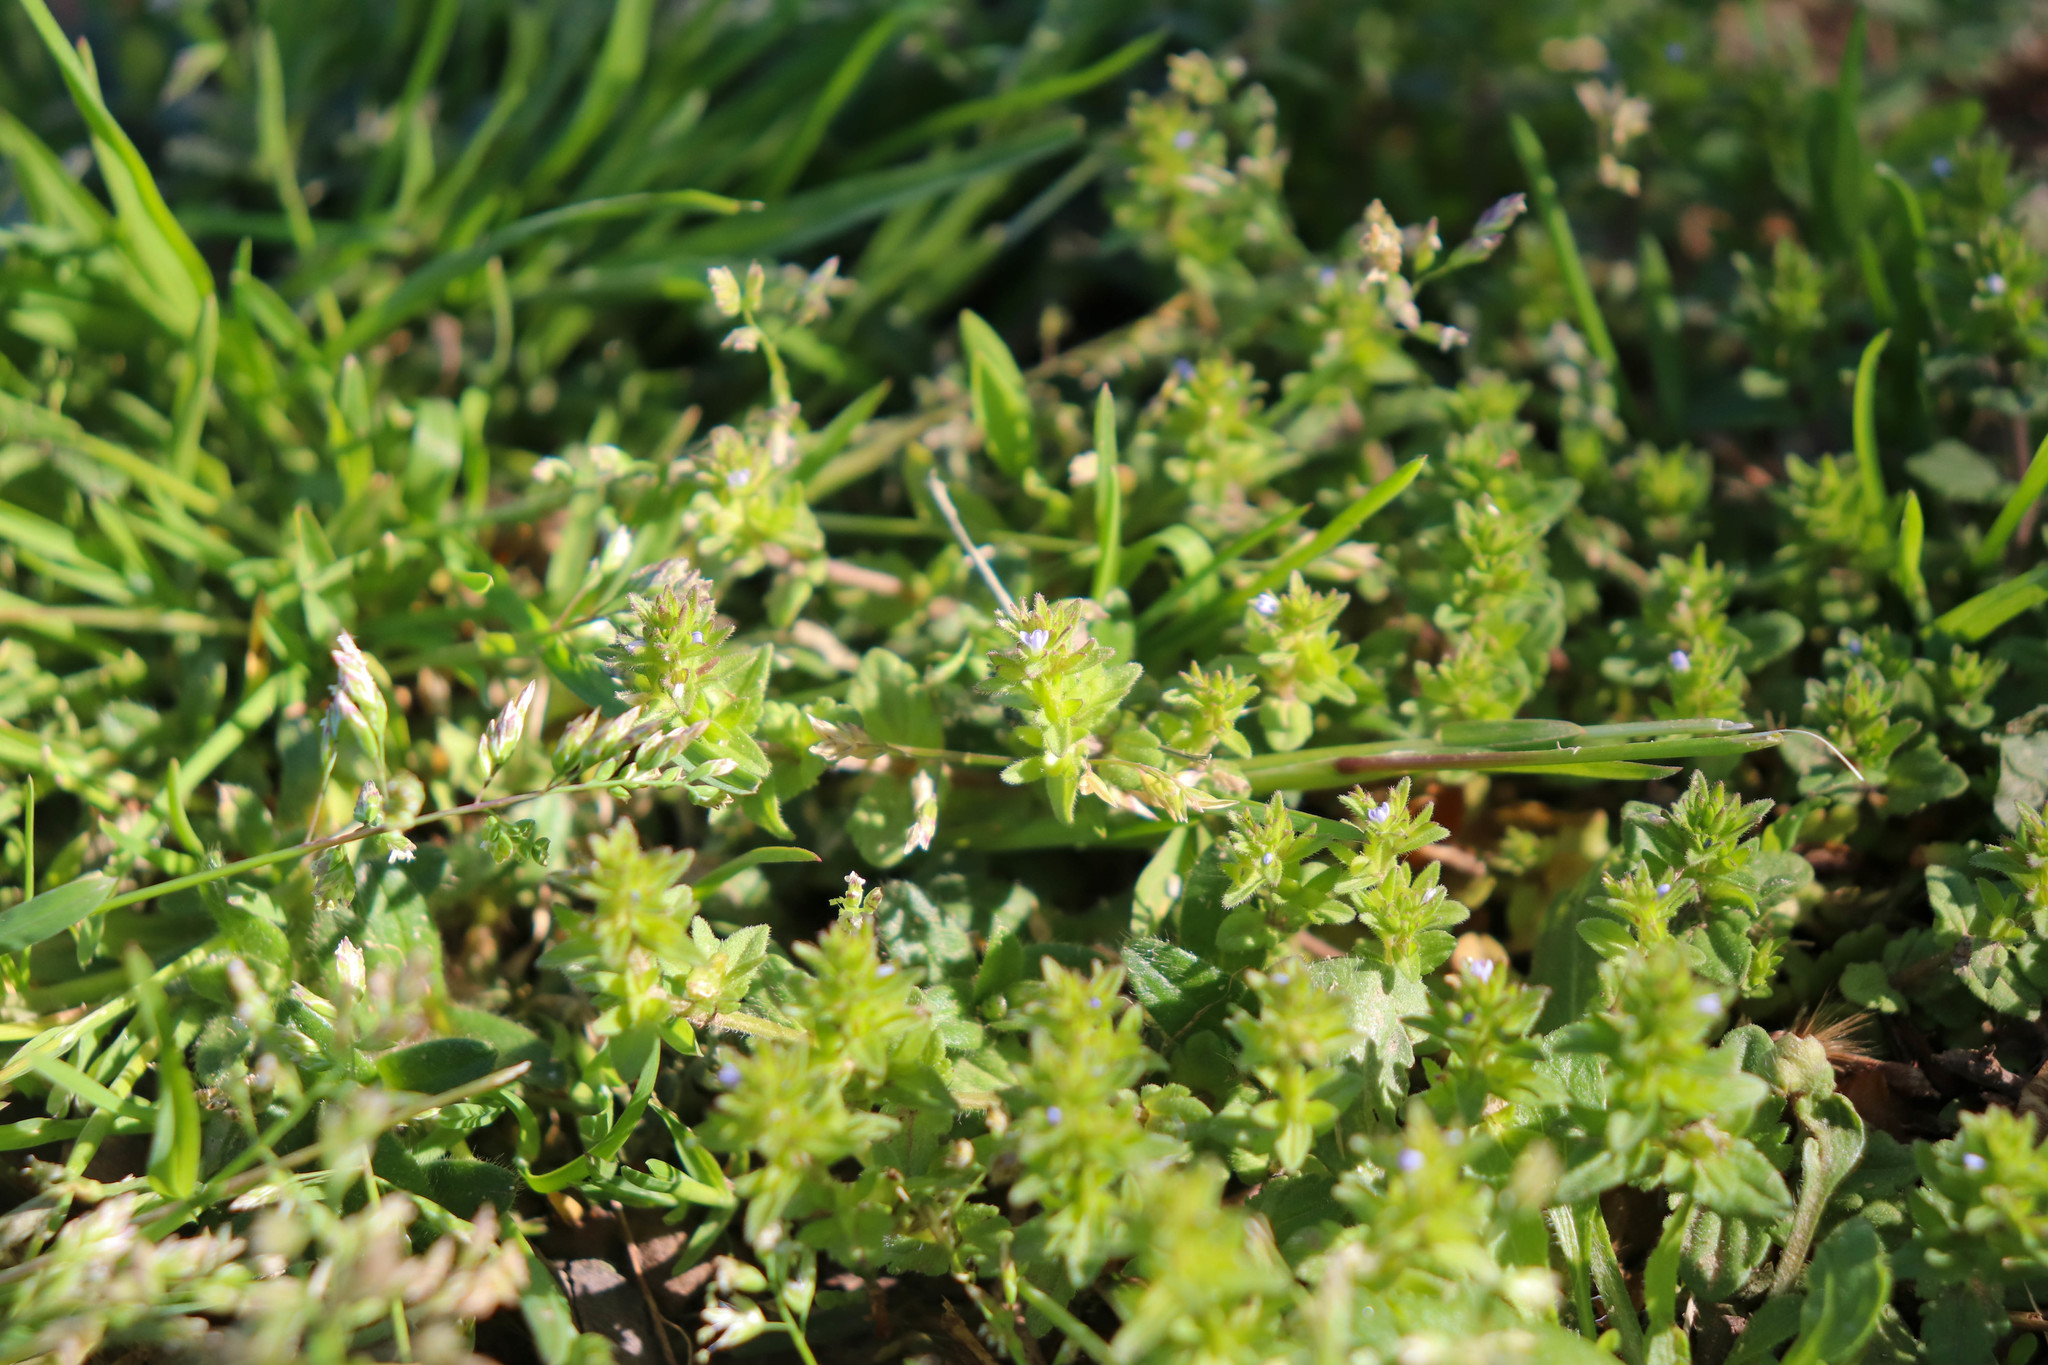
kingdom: Plantae
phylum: Tracheophyta
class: Magnoliopsida
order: Lamiales
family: Plantaginaceae
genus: Veronica
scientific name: Veronica arvensis
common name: Corn speedwell
